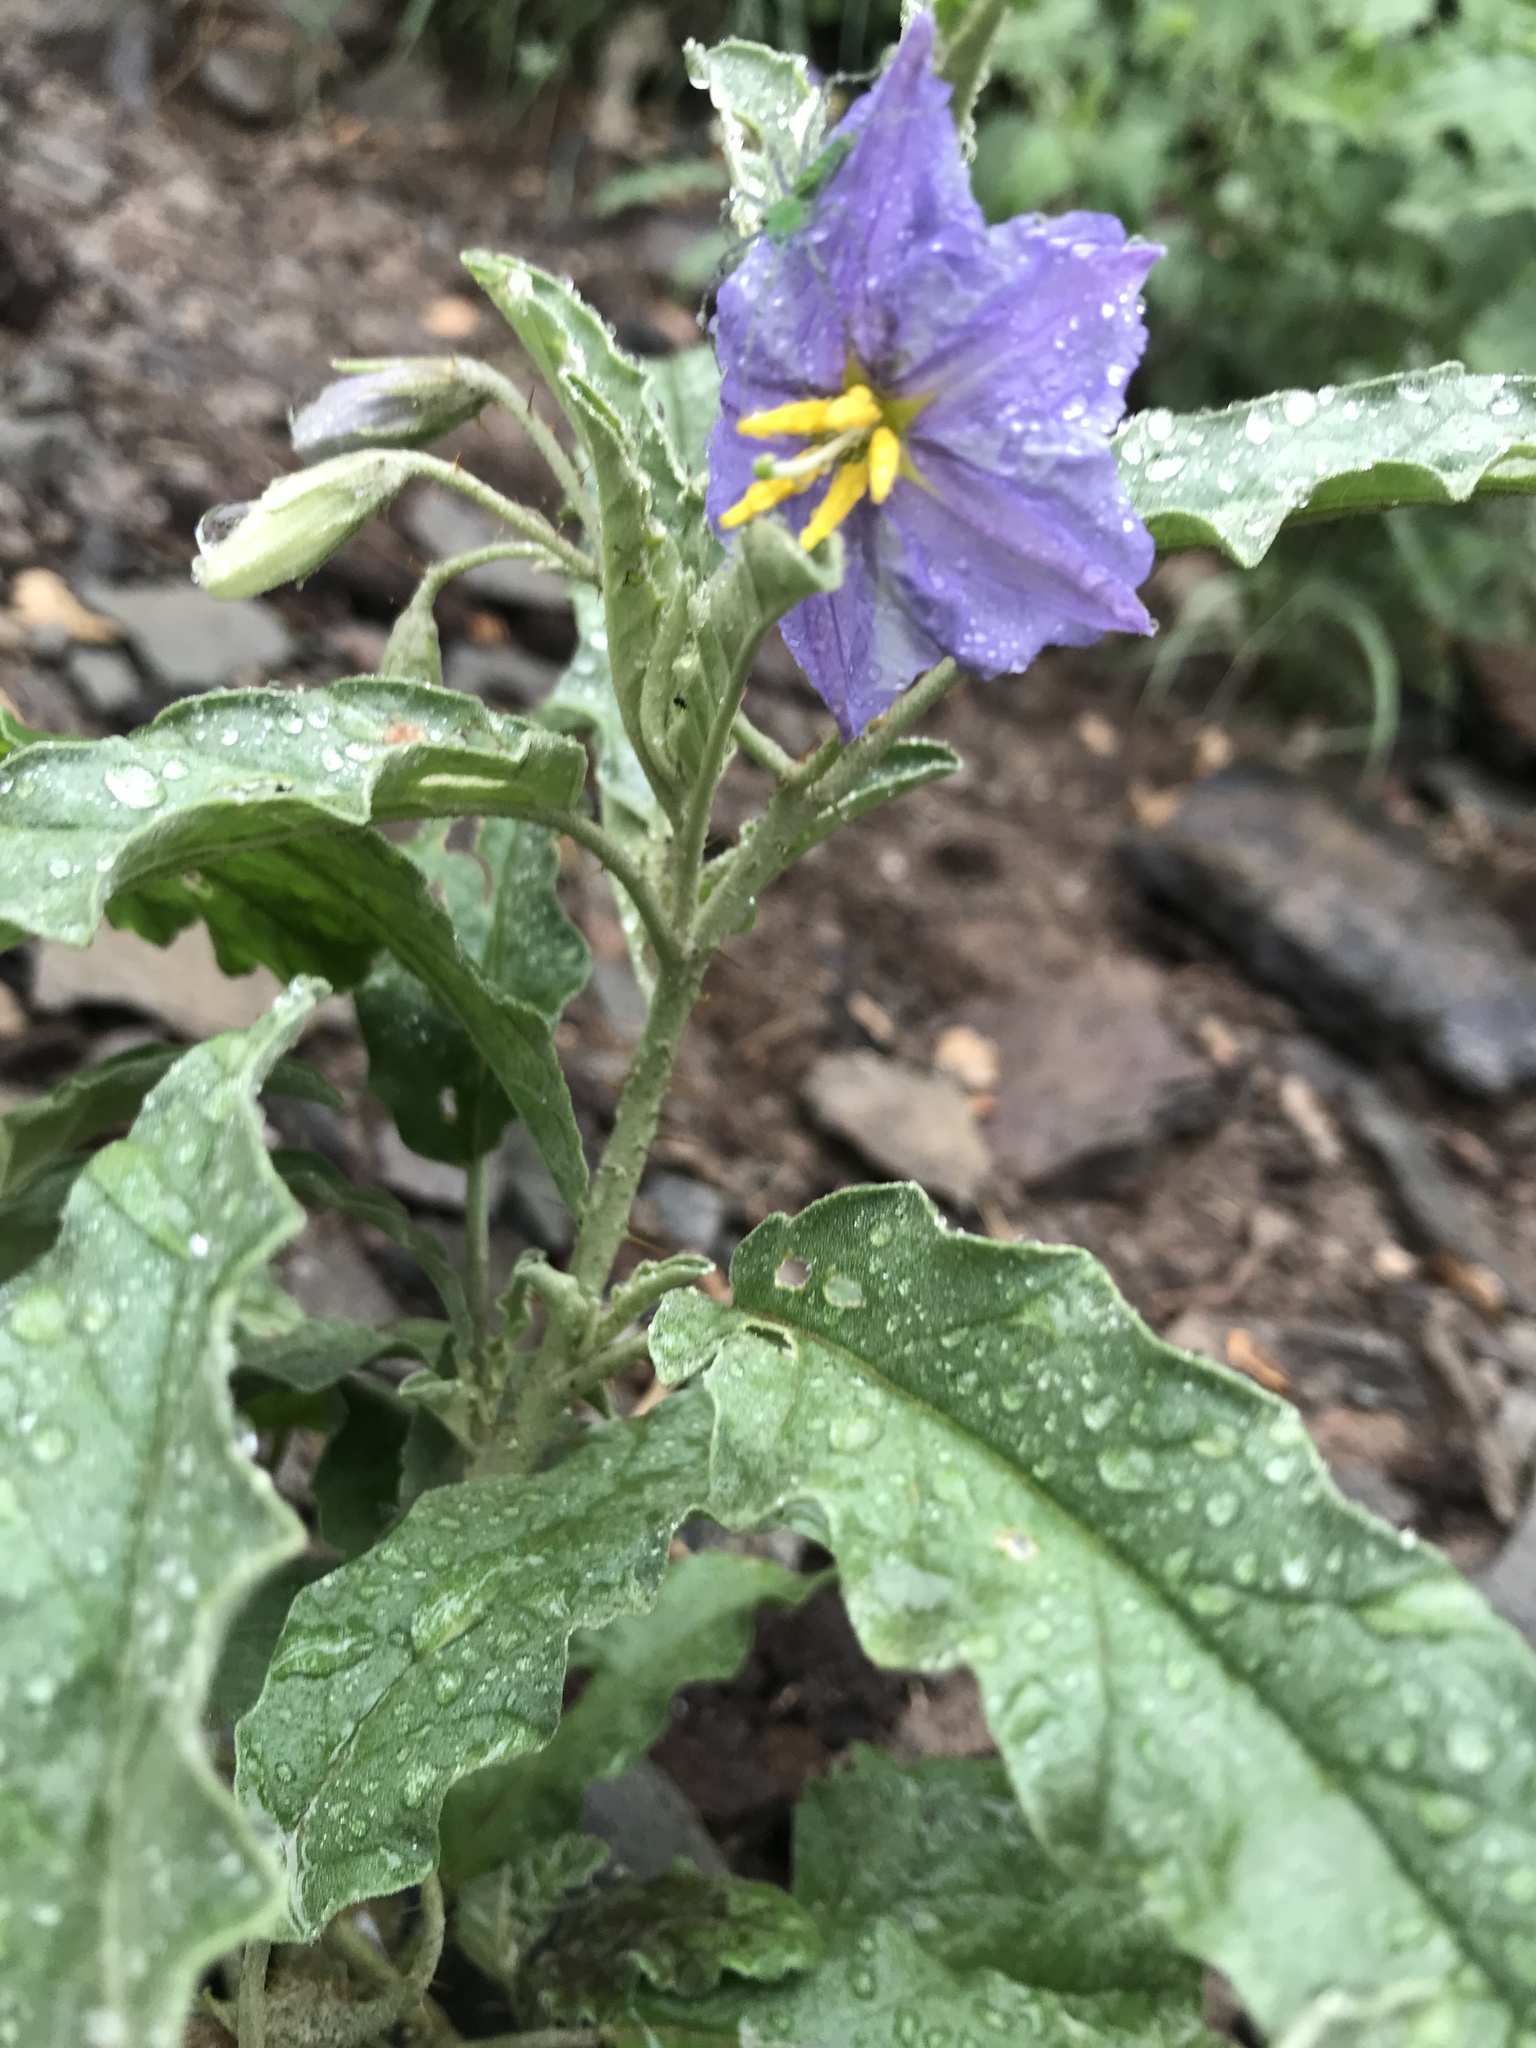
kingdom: Plantae
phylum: Tracheophyta
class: Magnoliopsida
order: Solanales
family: Solanaceae
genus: Solanum
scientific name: Solanum elaeagnifolium
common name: Silverleaf nightshade
